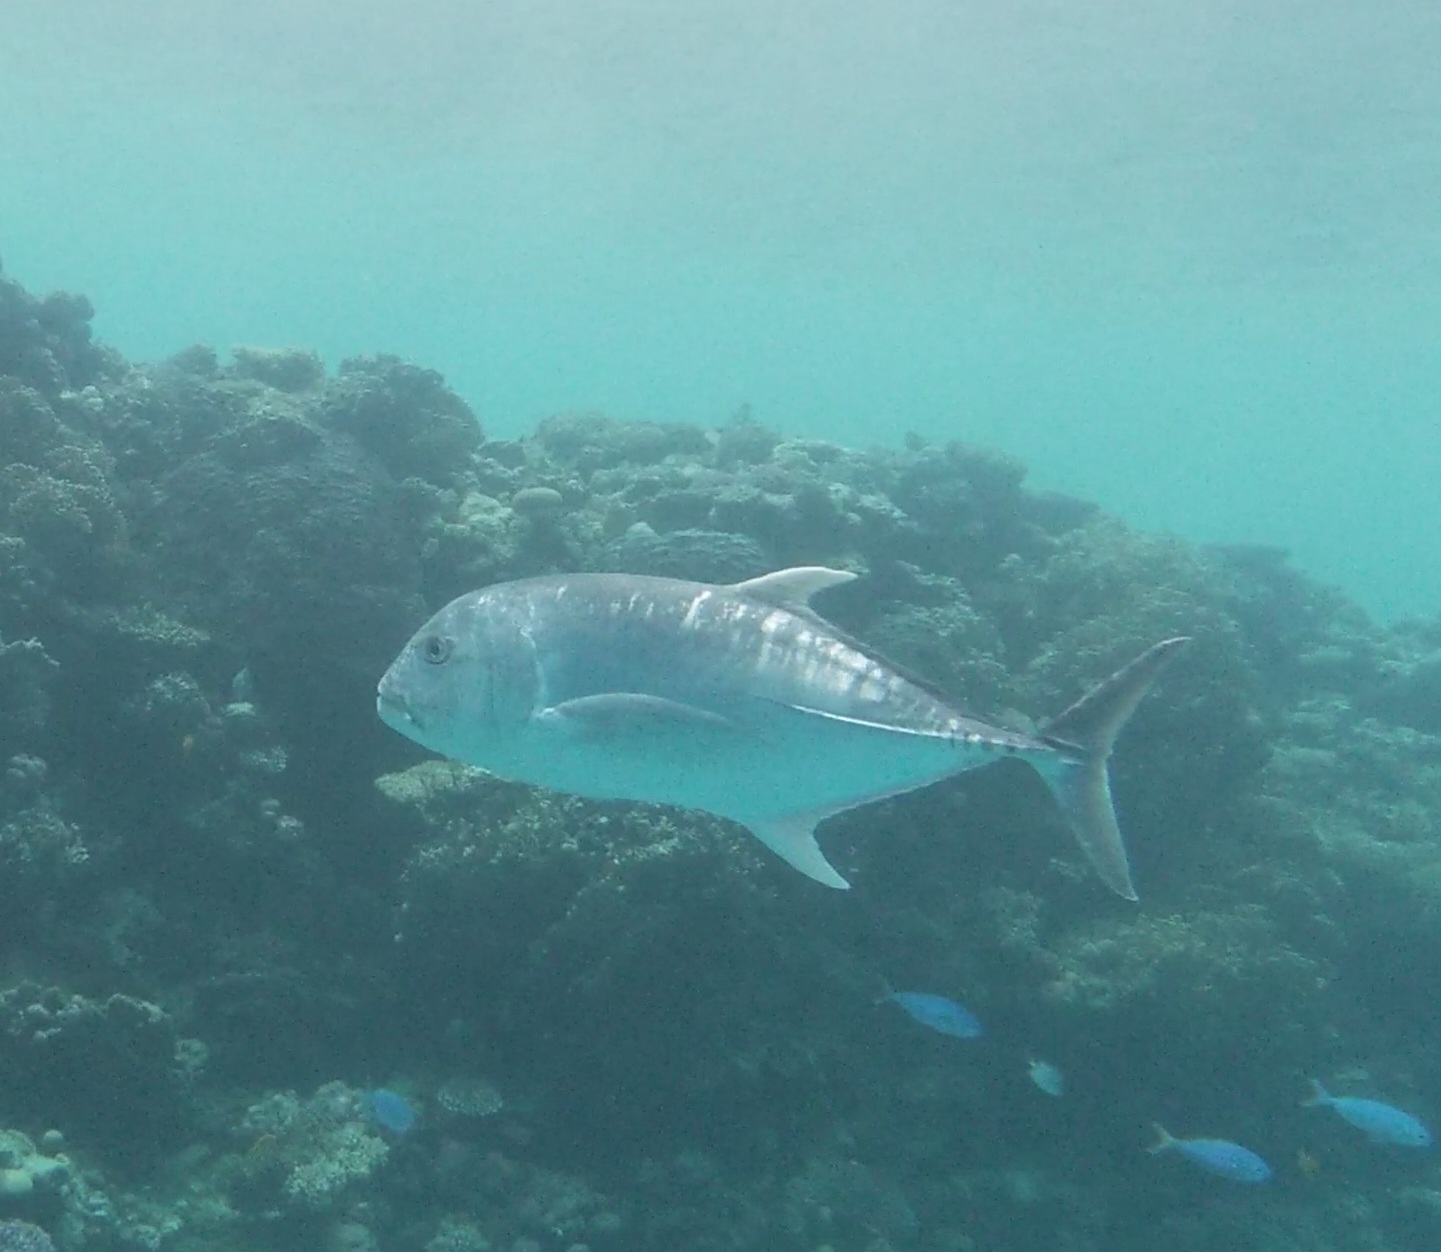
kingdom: Animalia
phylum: Chordata
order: Perciformes
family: Carangidae
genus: Caranx
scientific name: Caranx ignobilis
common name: Giant trevally
